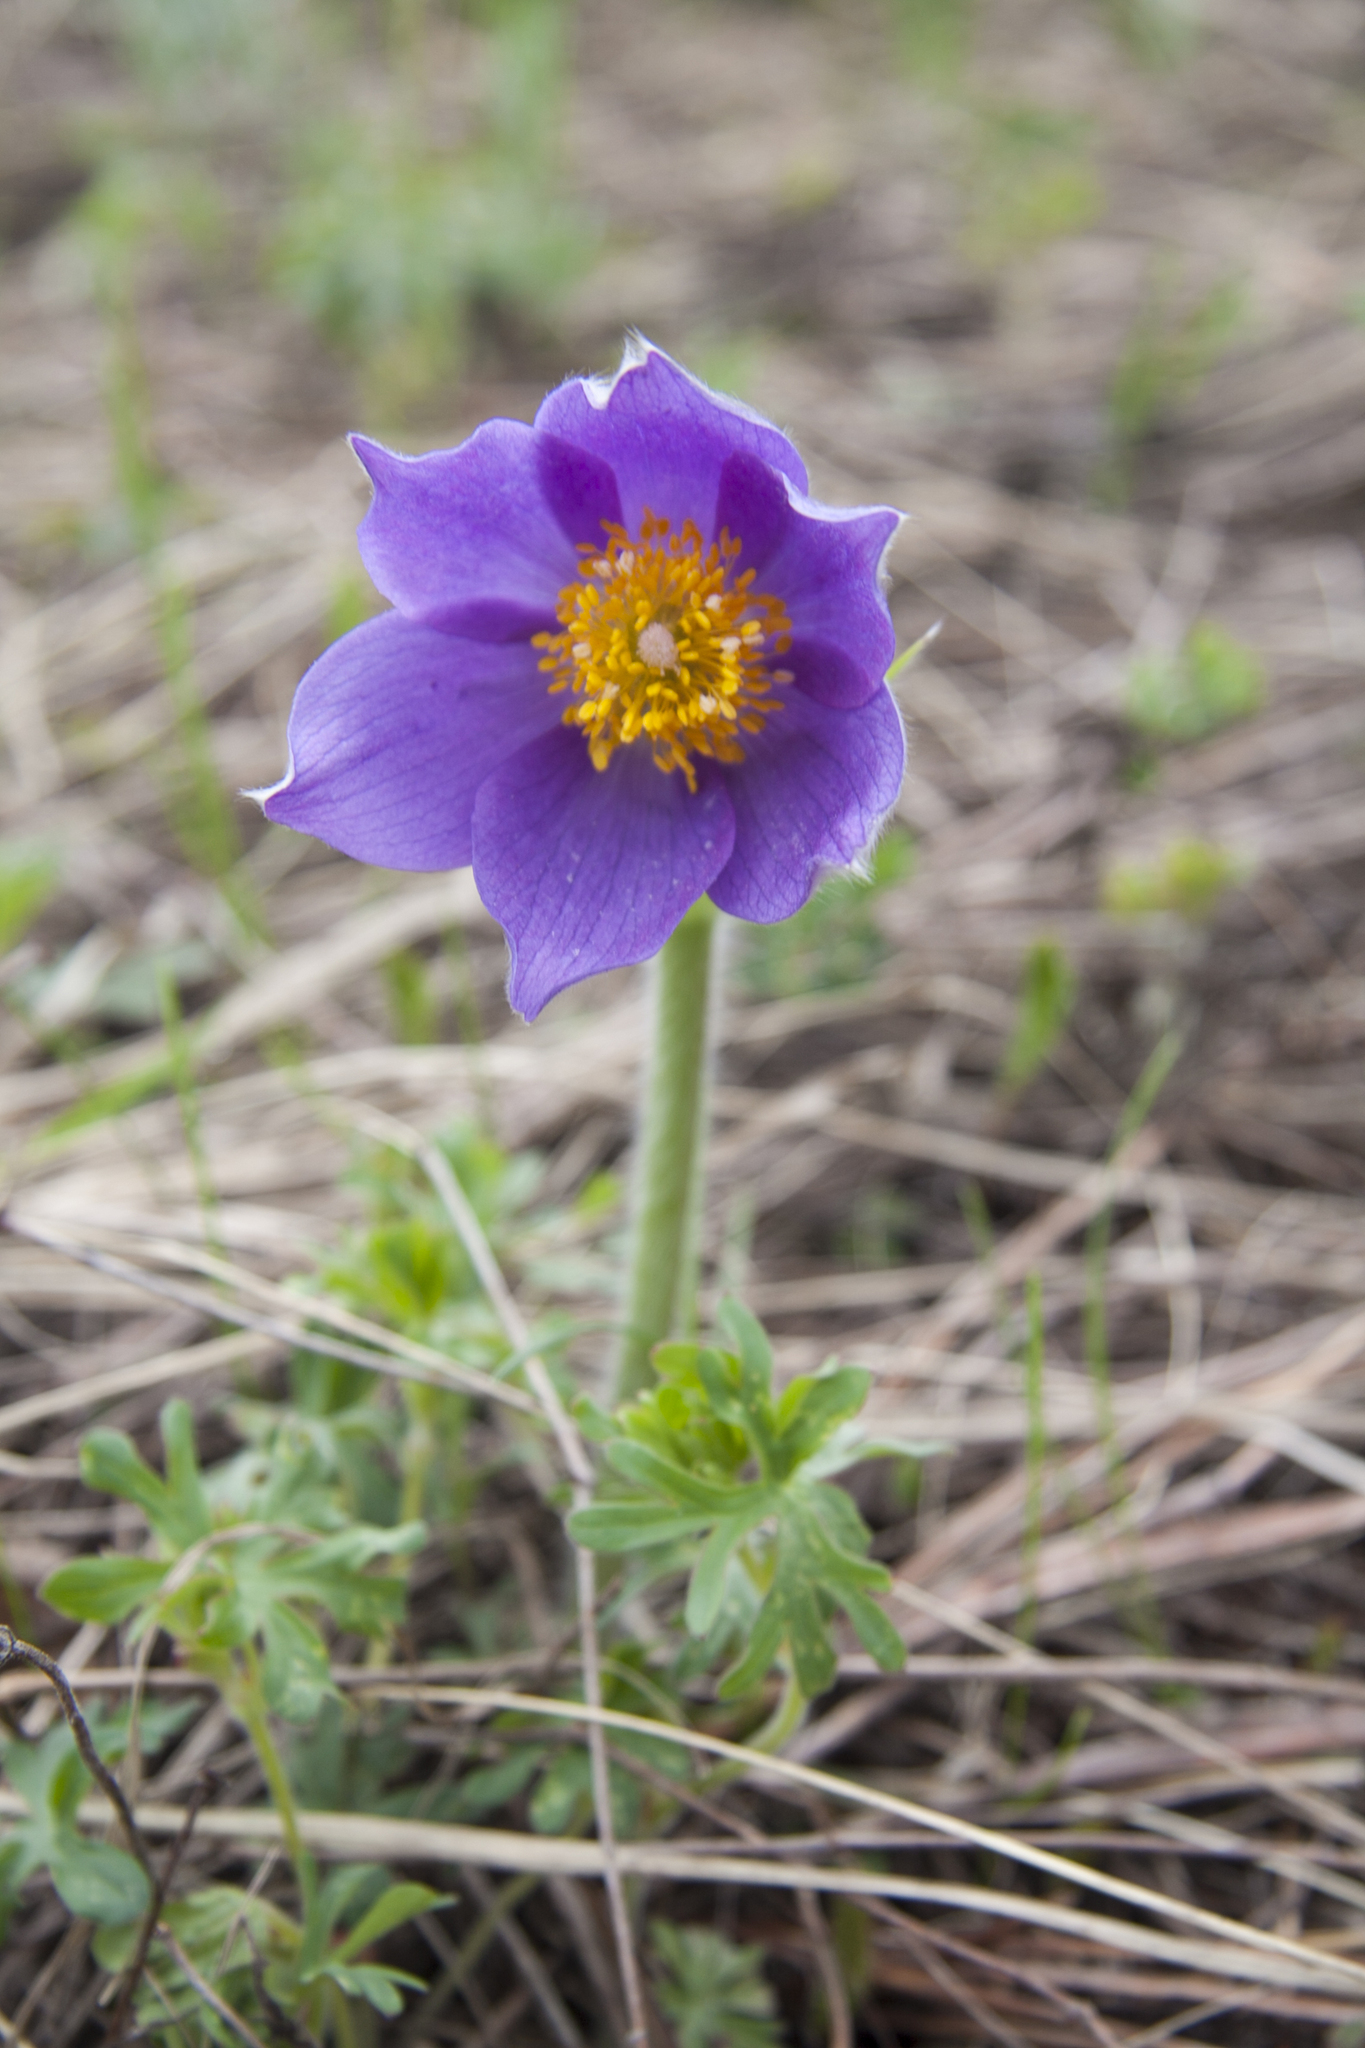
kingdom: Plantae
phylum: Tracheophyta
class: Magnoliopsida
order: Ranunculales
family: Ranunculaceae
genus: Pulsatilla
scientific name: Pulsatilla patens
